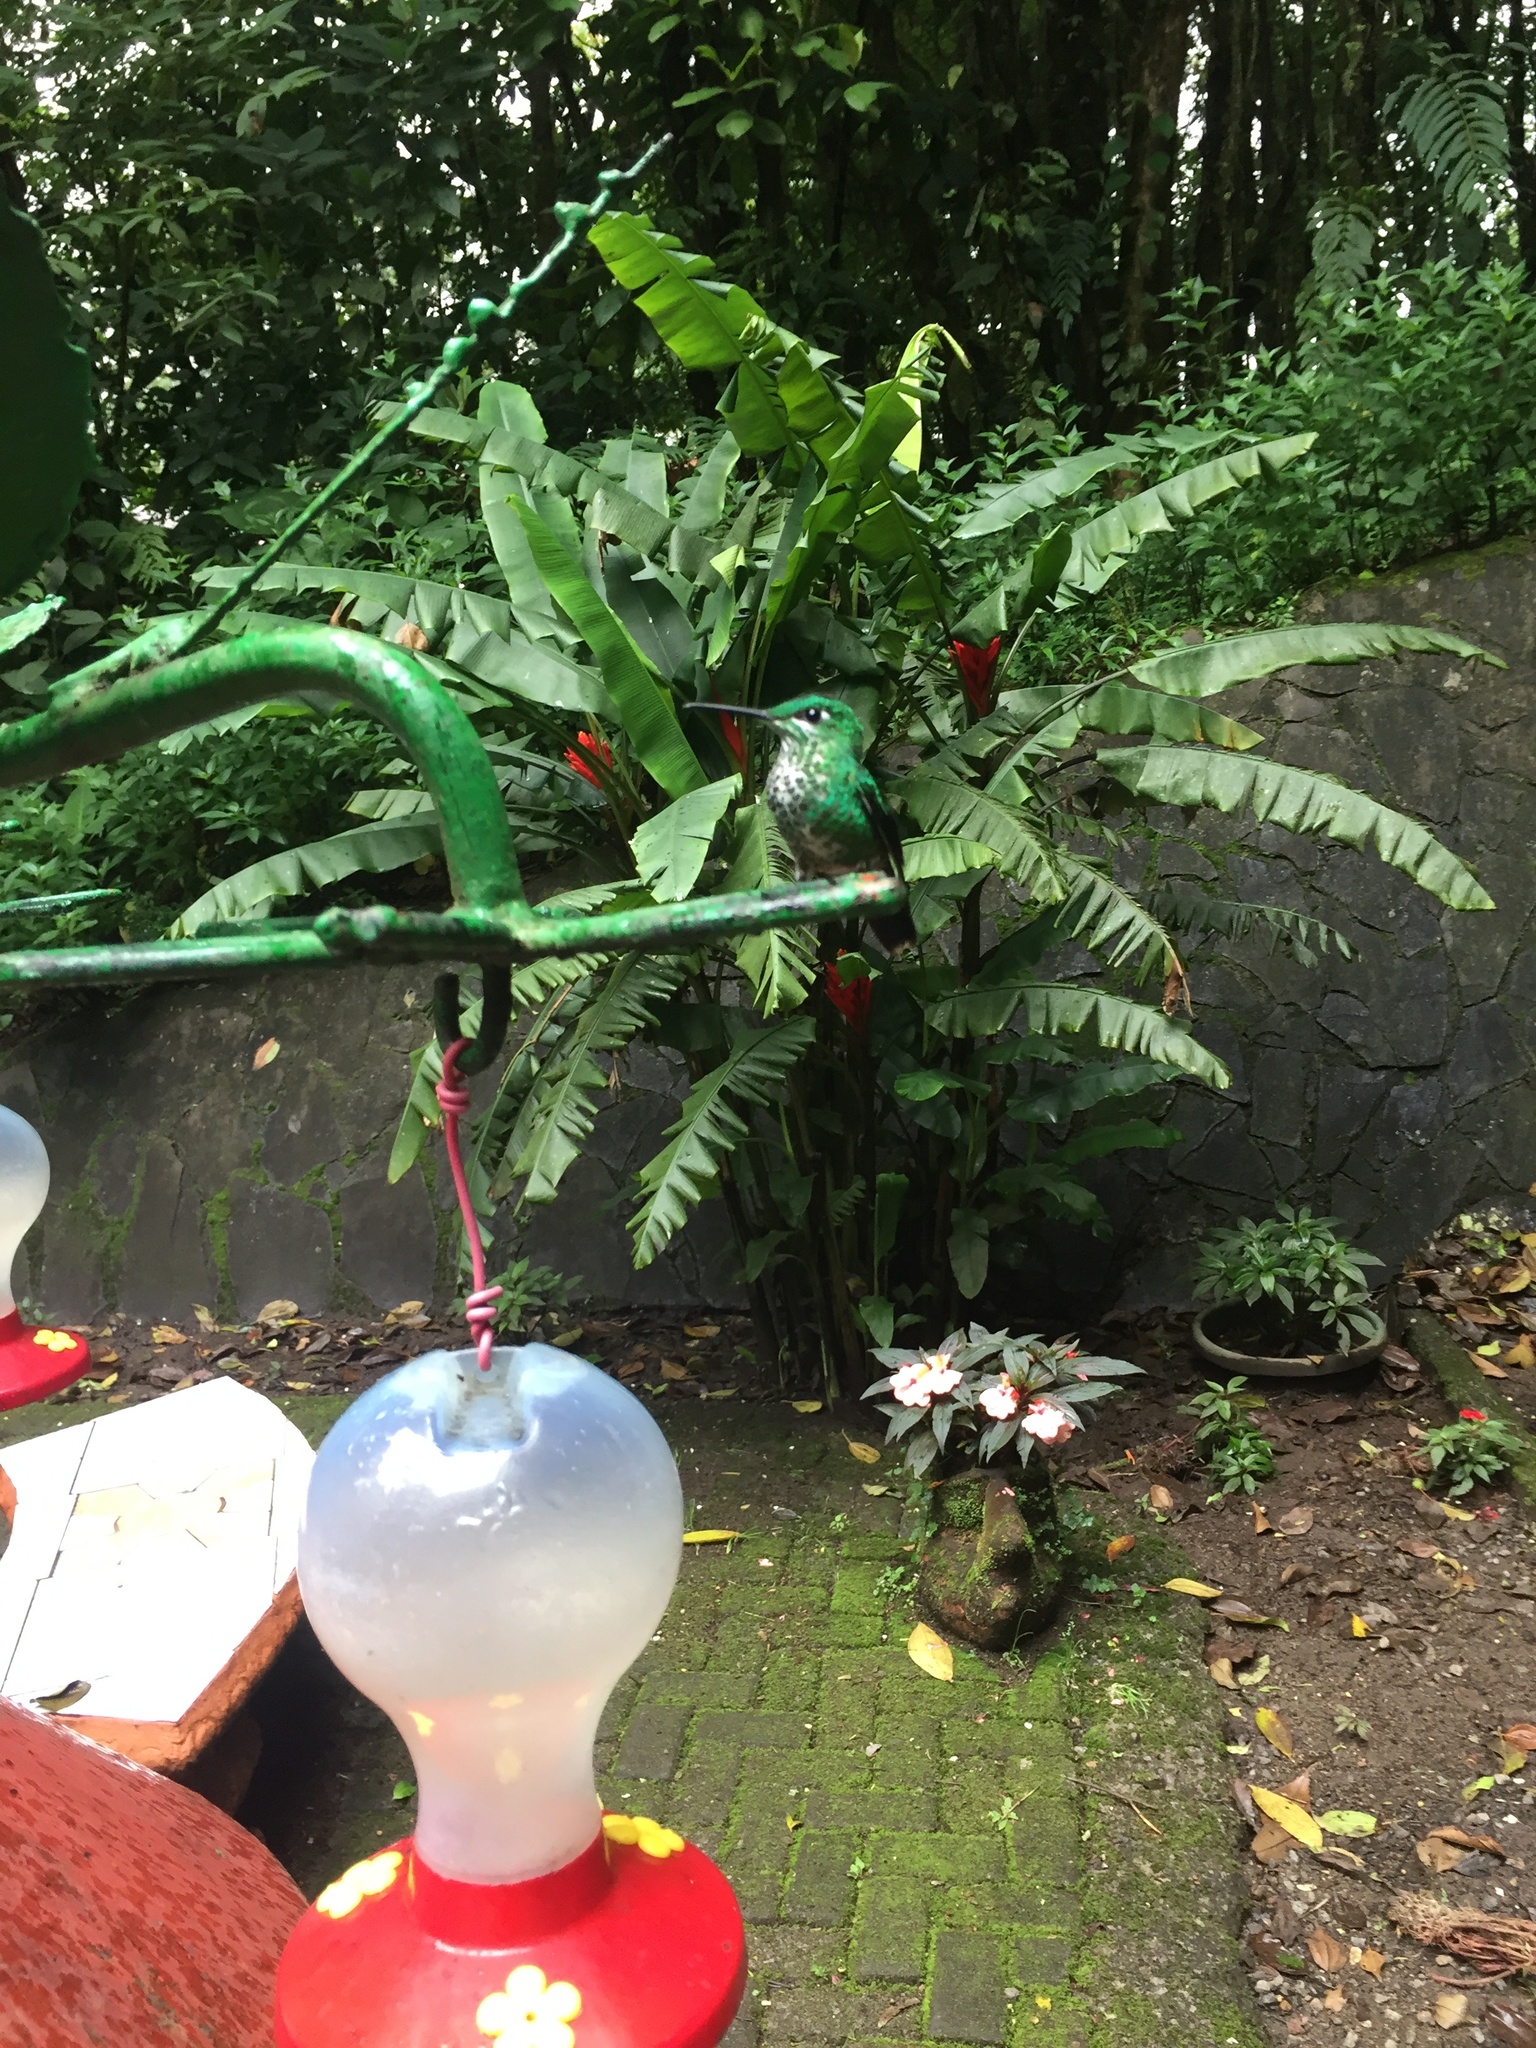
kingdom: Animalia
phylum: Chordata
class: Aves
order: Apodiformes
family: Trochilidae
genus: Heliodoxa
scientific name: Heliodoxa jacula
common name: Green-crowned brilliant
